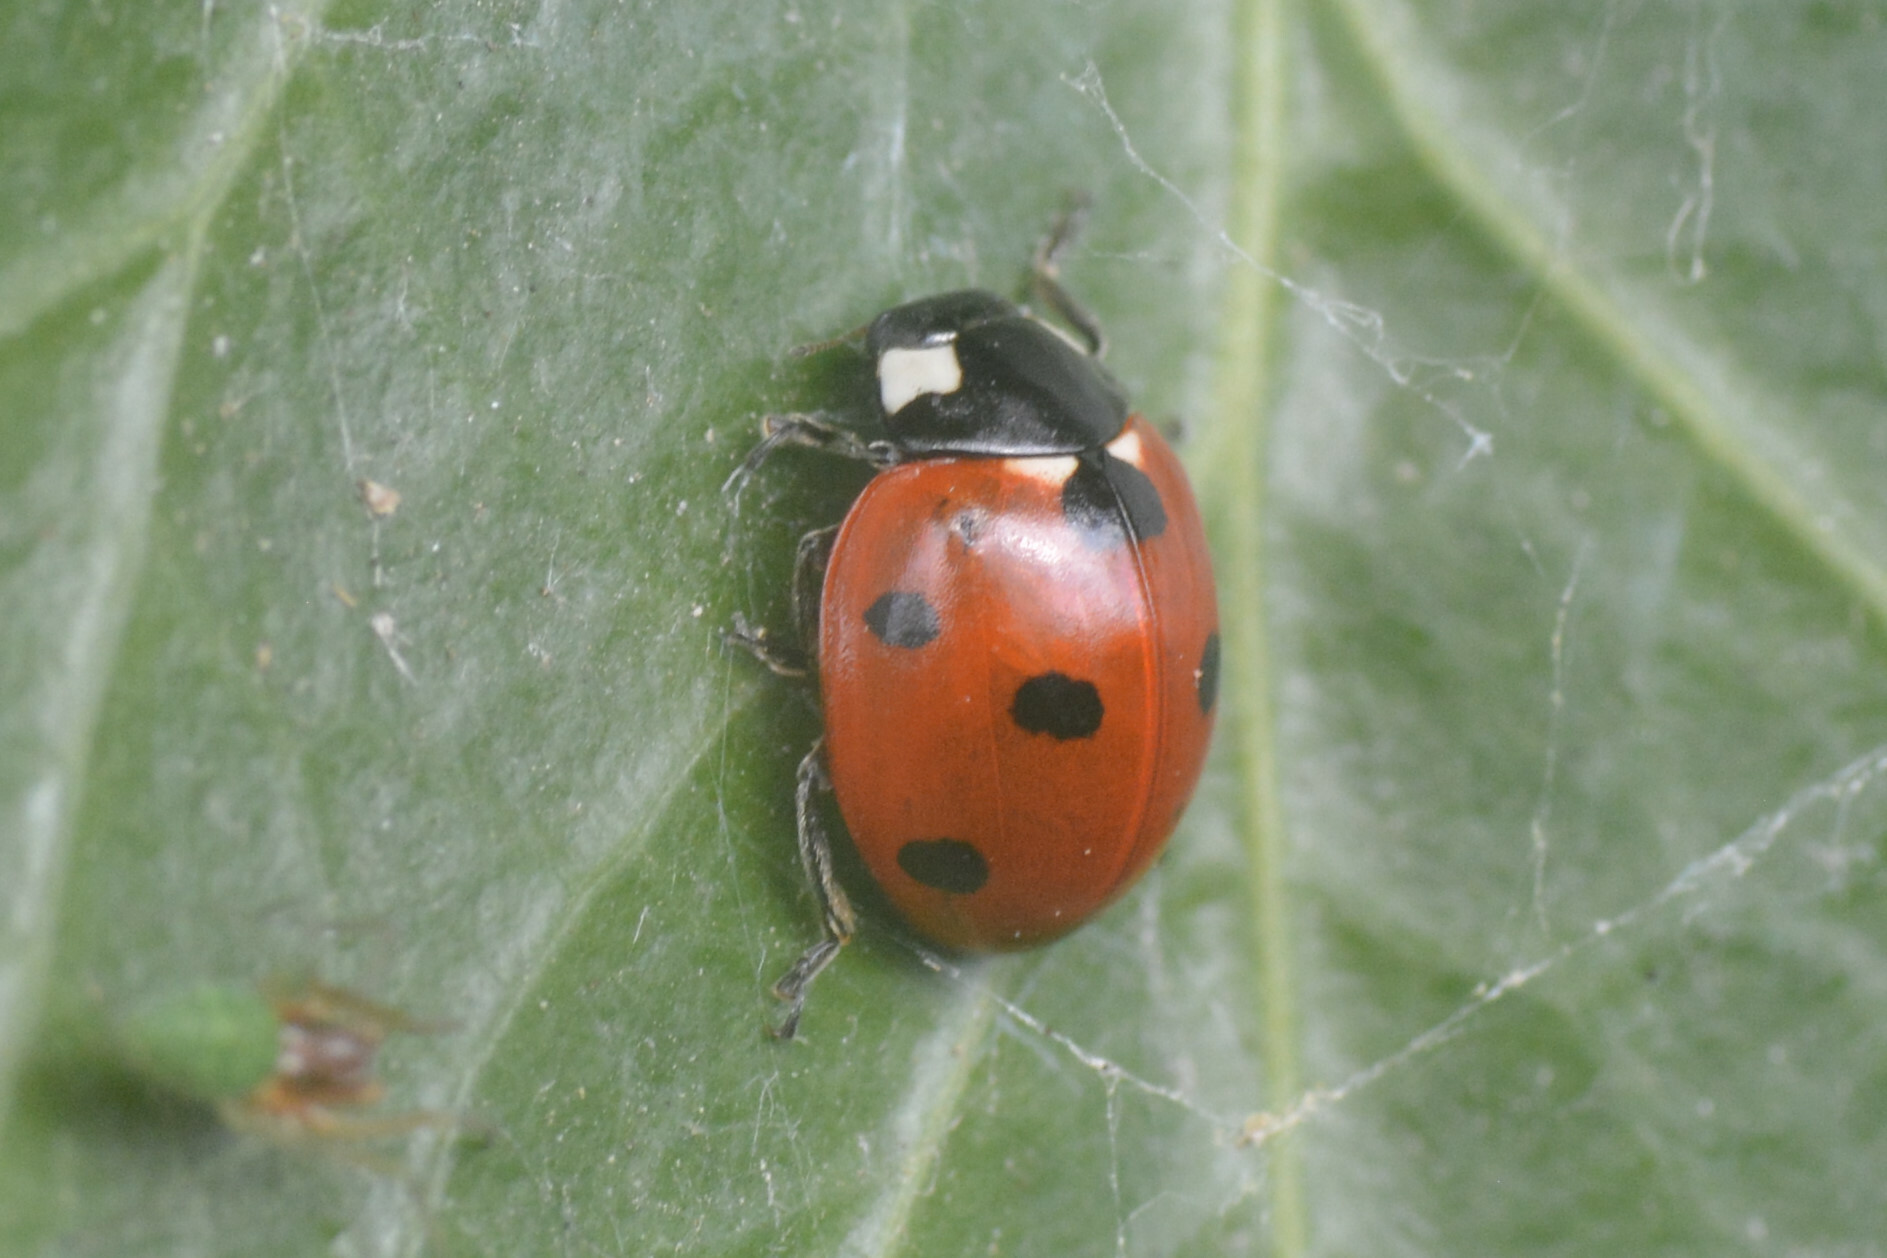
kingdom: Animalia
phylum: Arthropoda
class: Insecta
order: Coleoptera
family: Coccinellidae
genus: Coccinella
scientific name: Coccinella septempunctata
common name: Sevenspotted lady beetle
